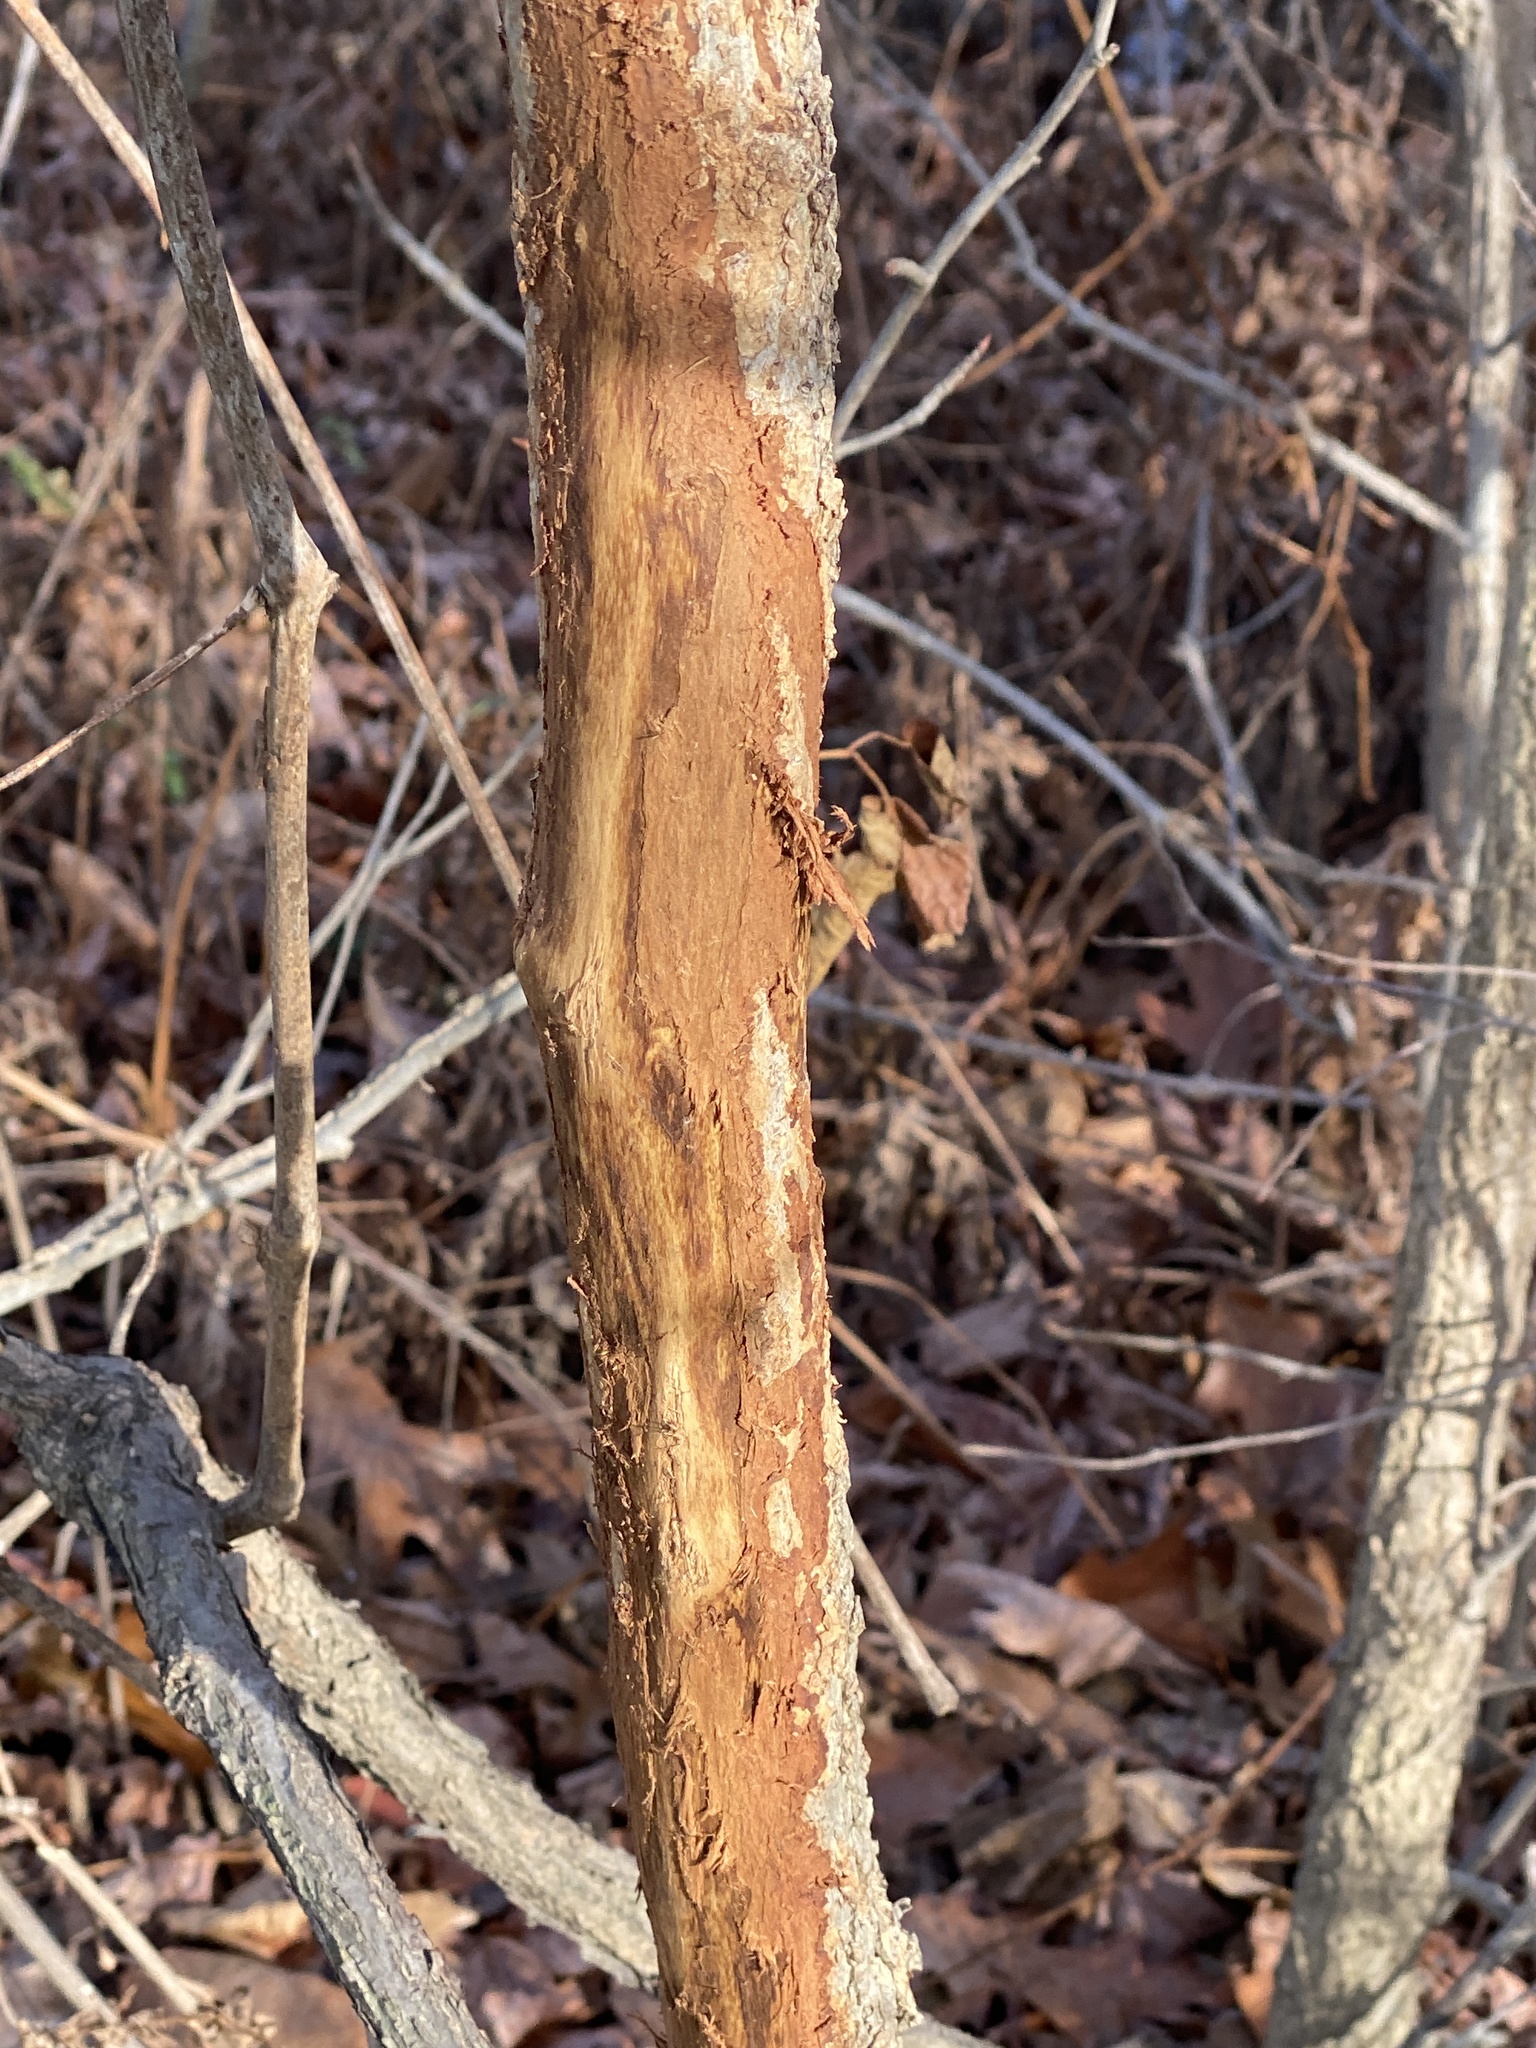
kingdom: Animalia
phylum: Chordata
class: Mammalia
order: Artiodactyla
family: Cervidae
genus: Odocoileus
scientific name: Odocoileus virginianus
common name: White-tailed deer
